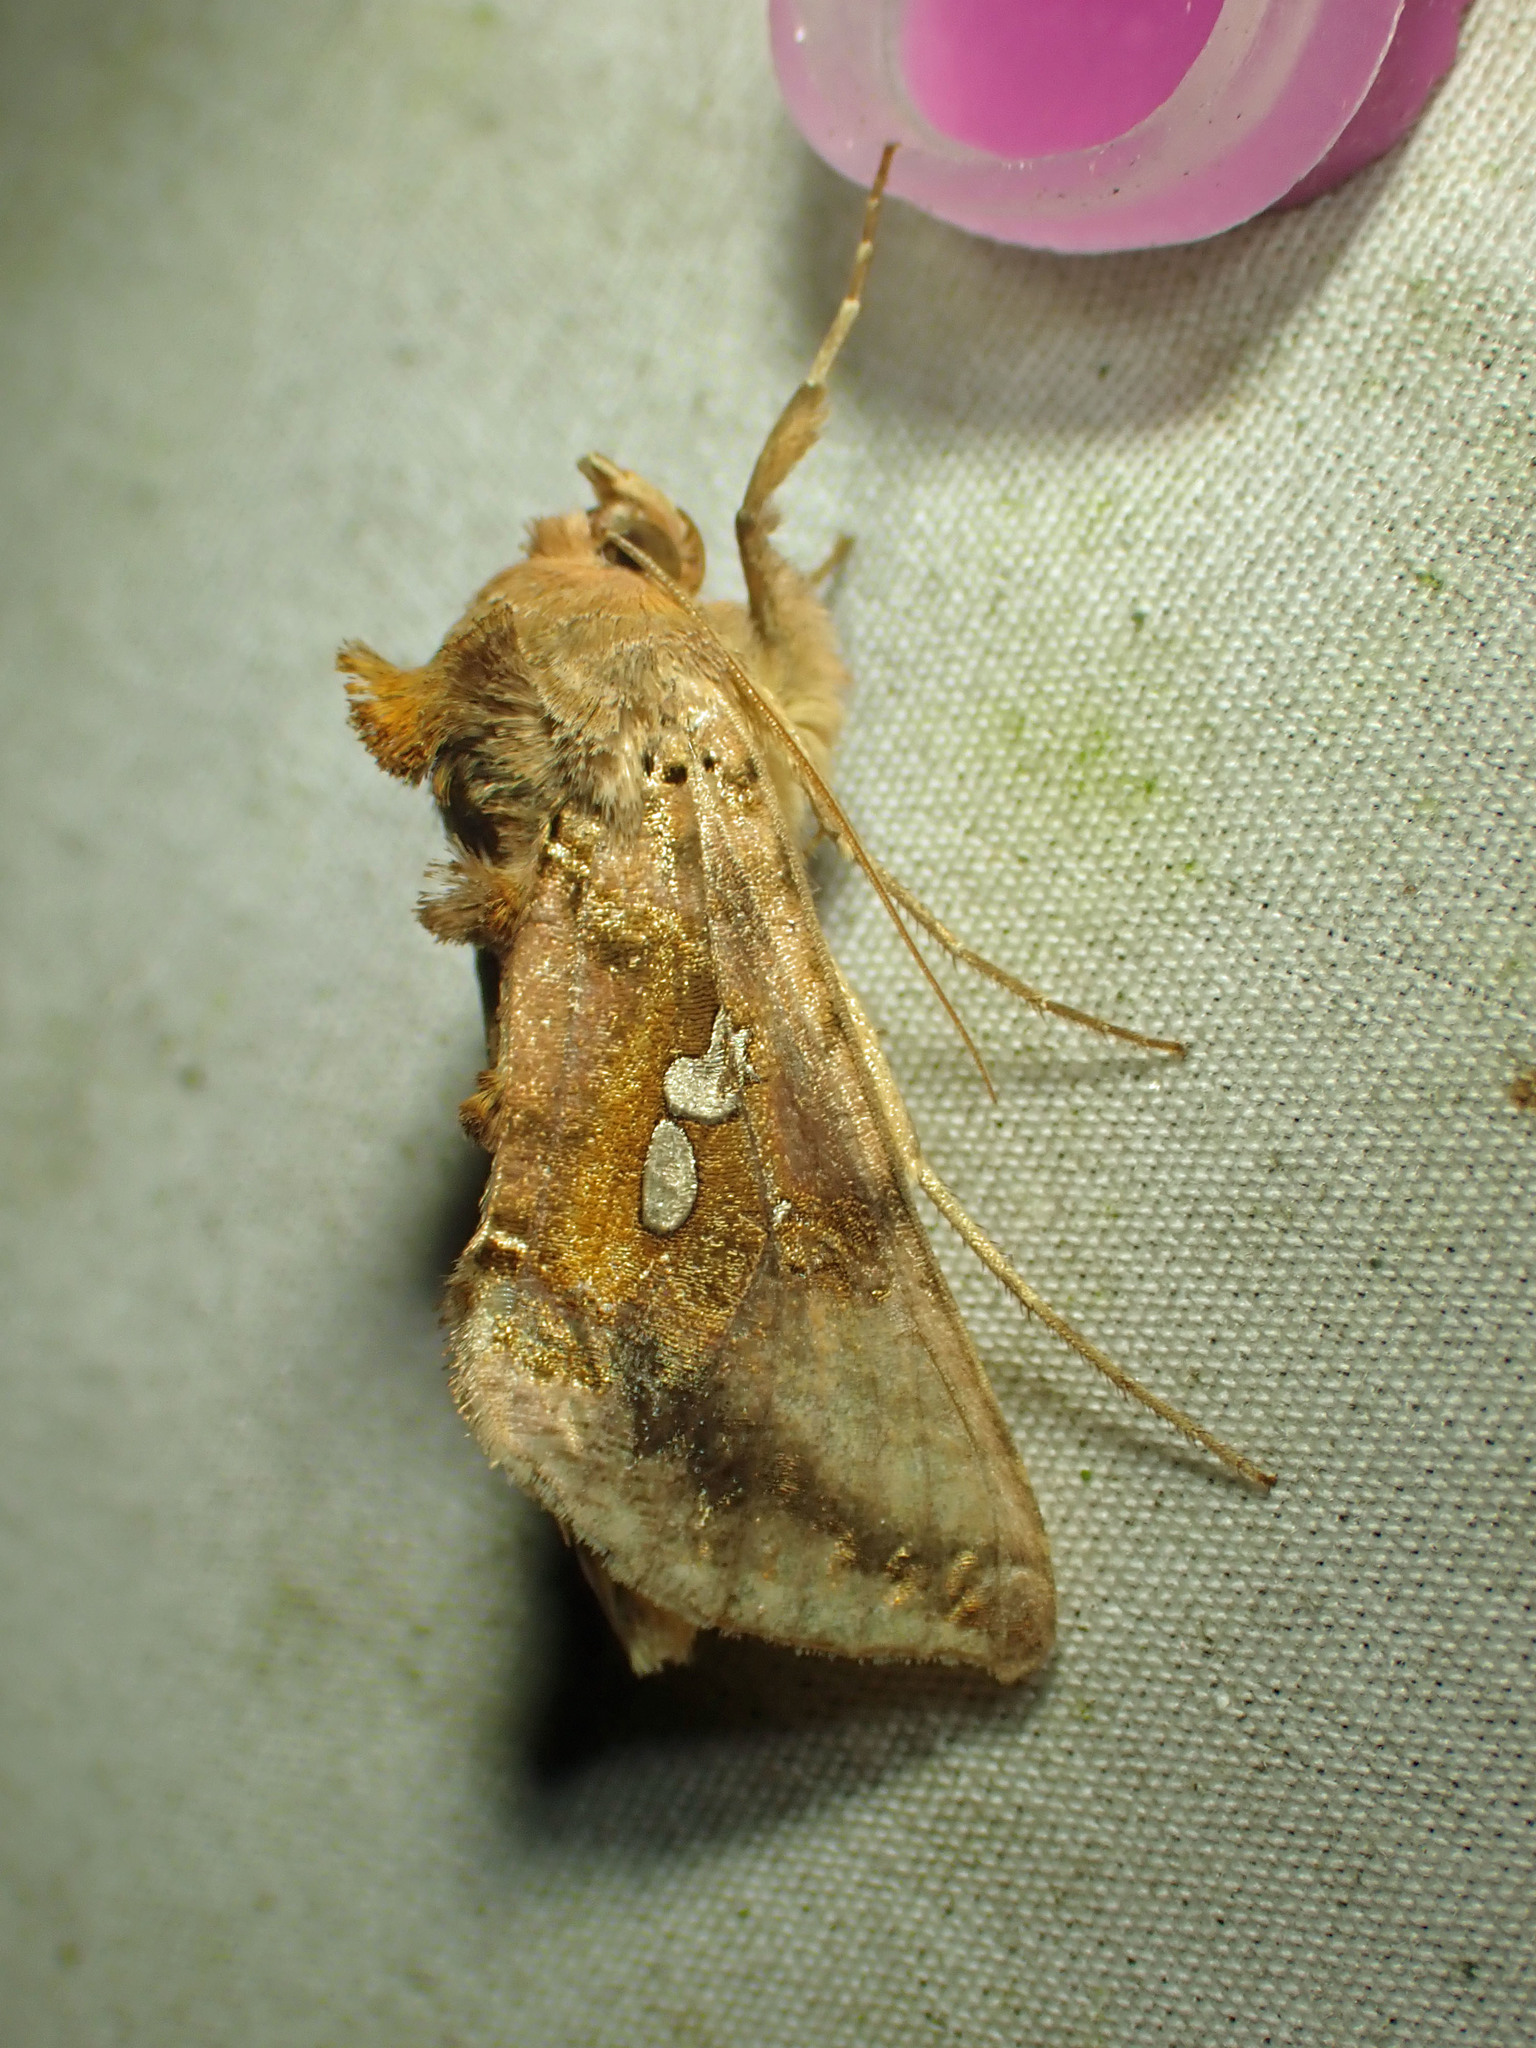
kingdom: Animalia
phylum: Arthropoda
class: Insecta
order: Lepidoptera
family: Noctuidae
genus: Autographa
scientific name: Autographa bimaculata
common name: Double-spotted spangle
